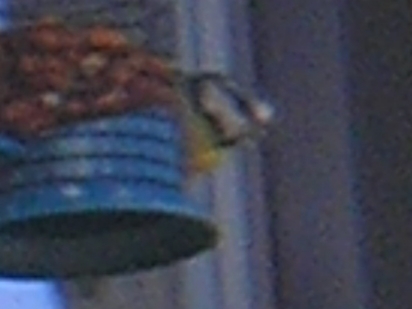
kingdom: Animalia
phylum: Chordata
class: Aves
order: Passeriformes
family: Paridae
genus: Cyanistes
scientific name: Cyanistes caeruleus
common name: Eurasian blue tit
